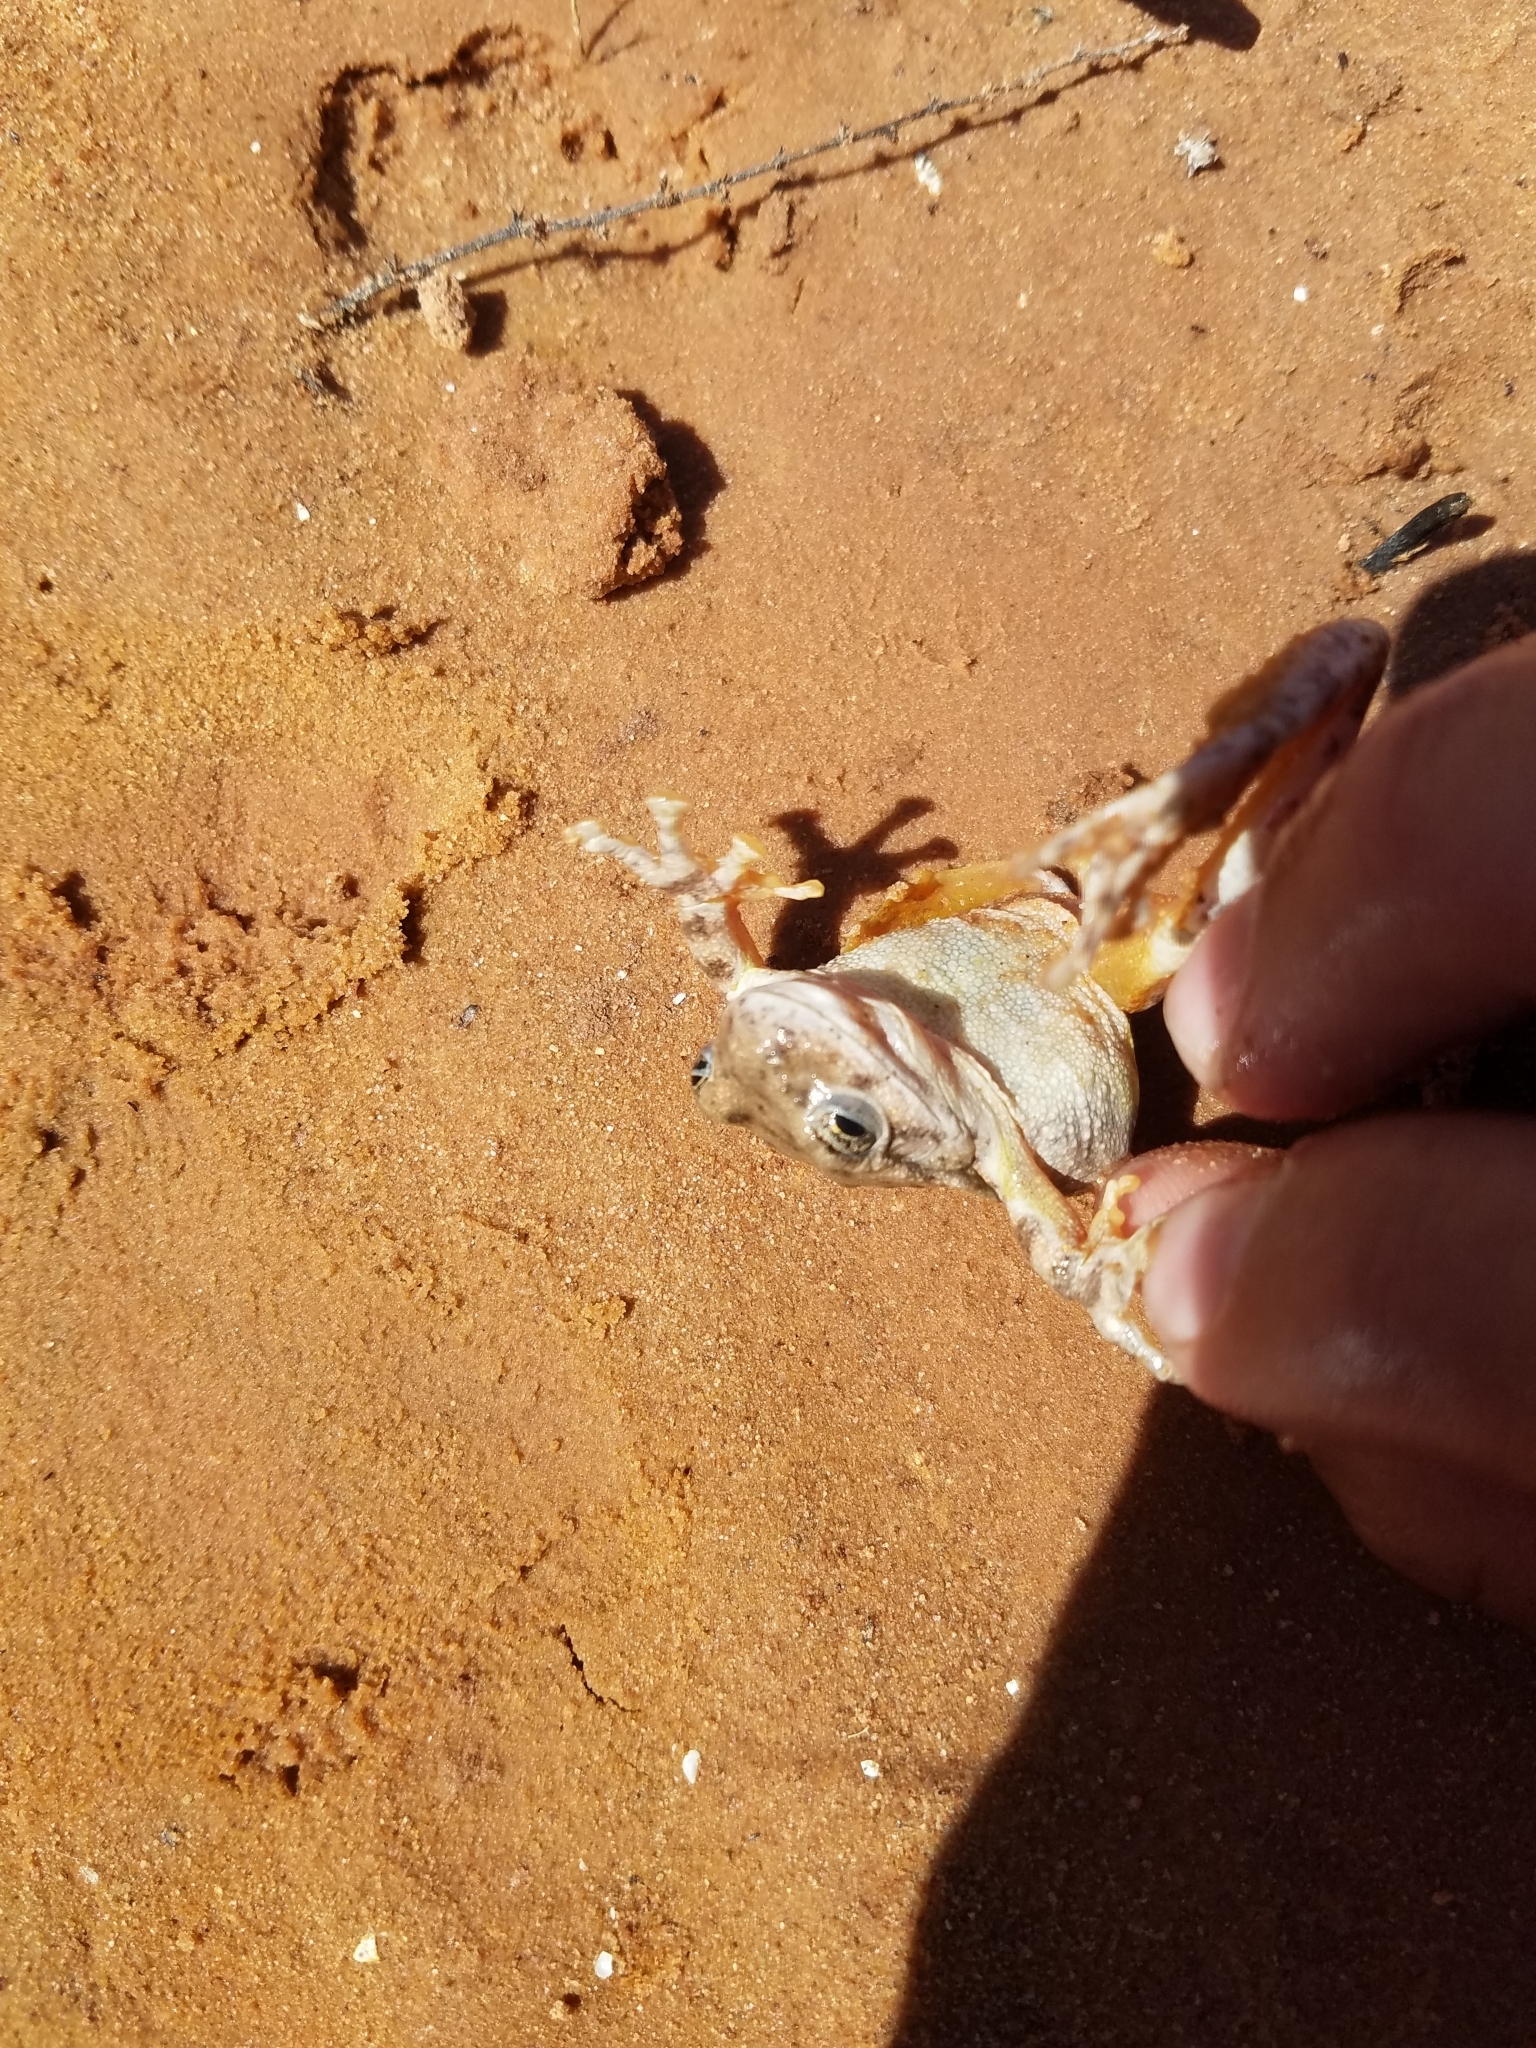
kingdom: Animalia
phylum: Chordata
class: Amphibia
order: Anura
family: Hylidae
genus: Dryophytes
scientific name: Dryophytes arenicolor
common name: Canyon treefrog
